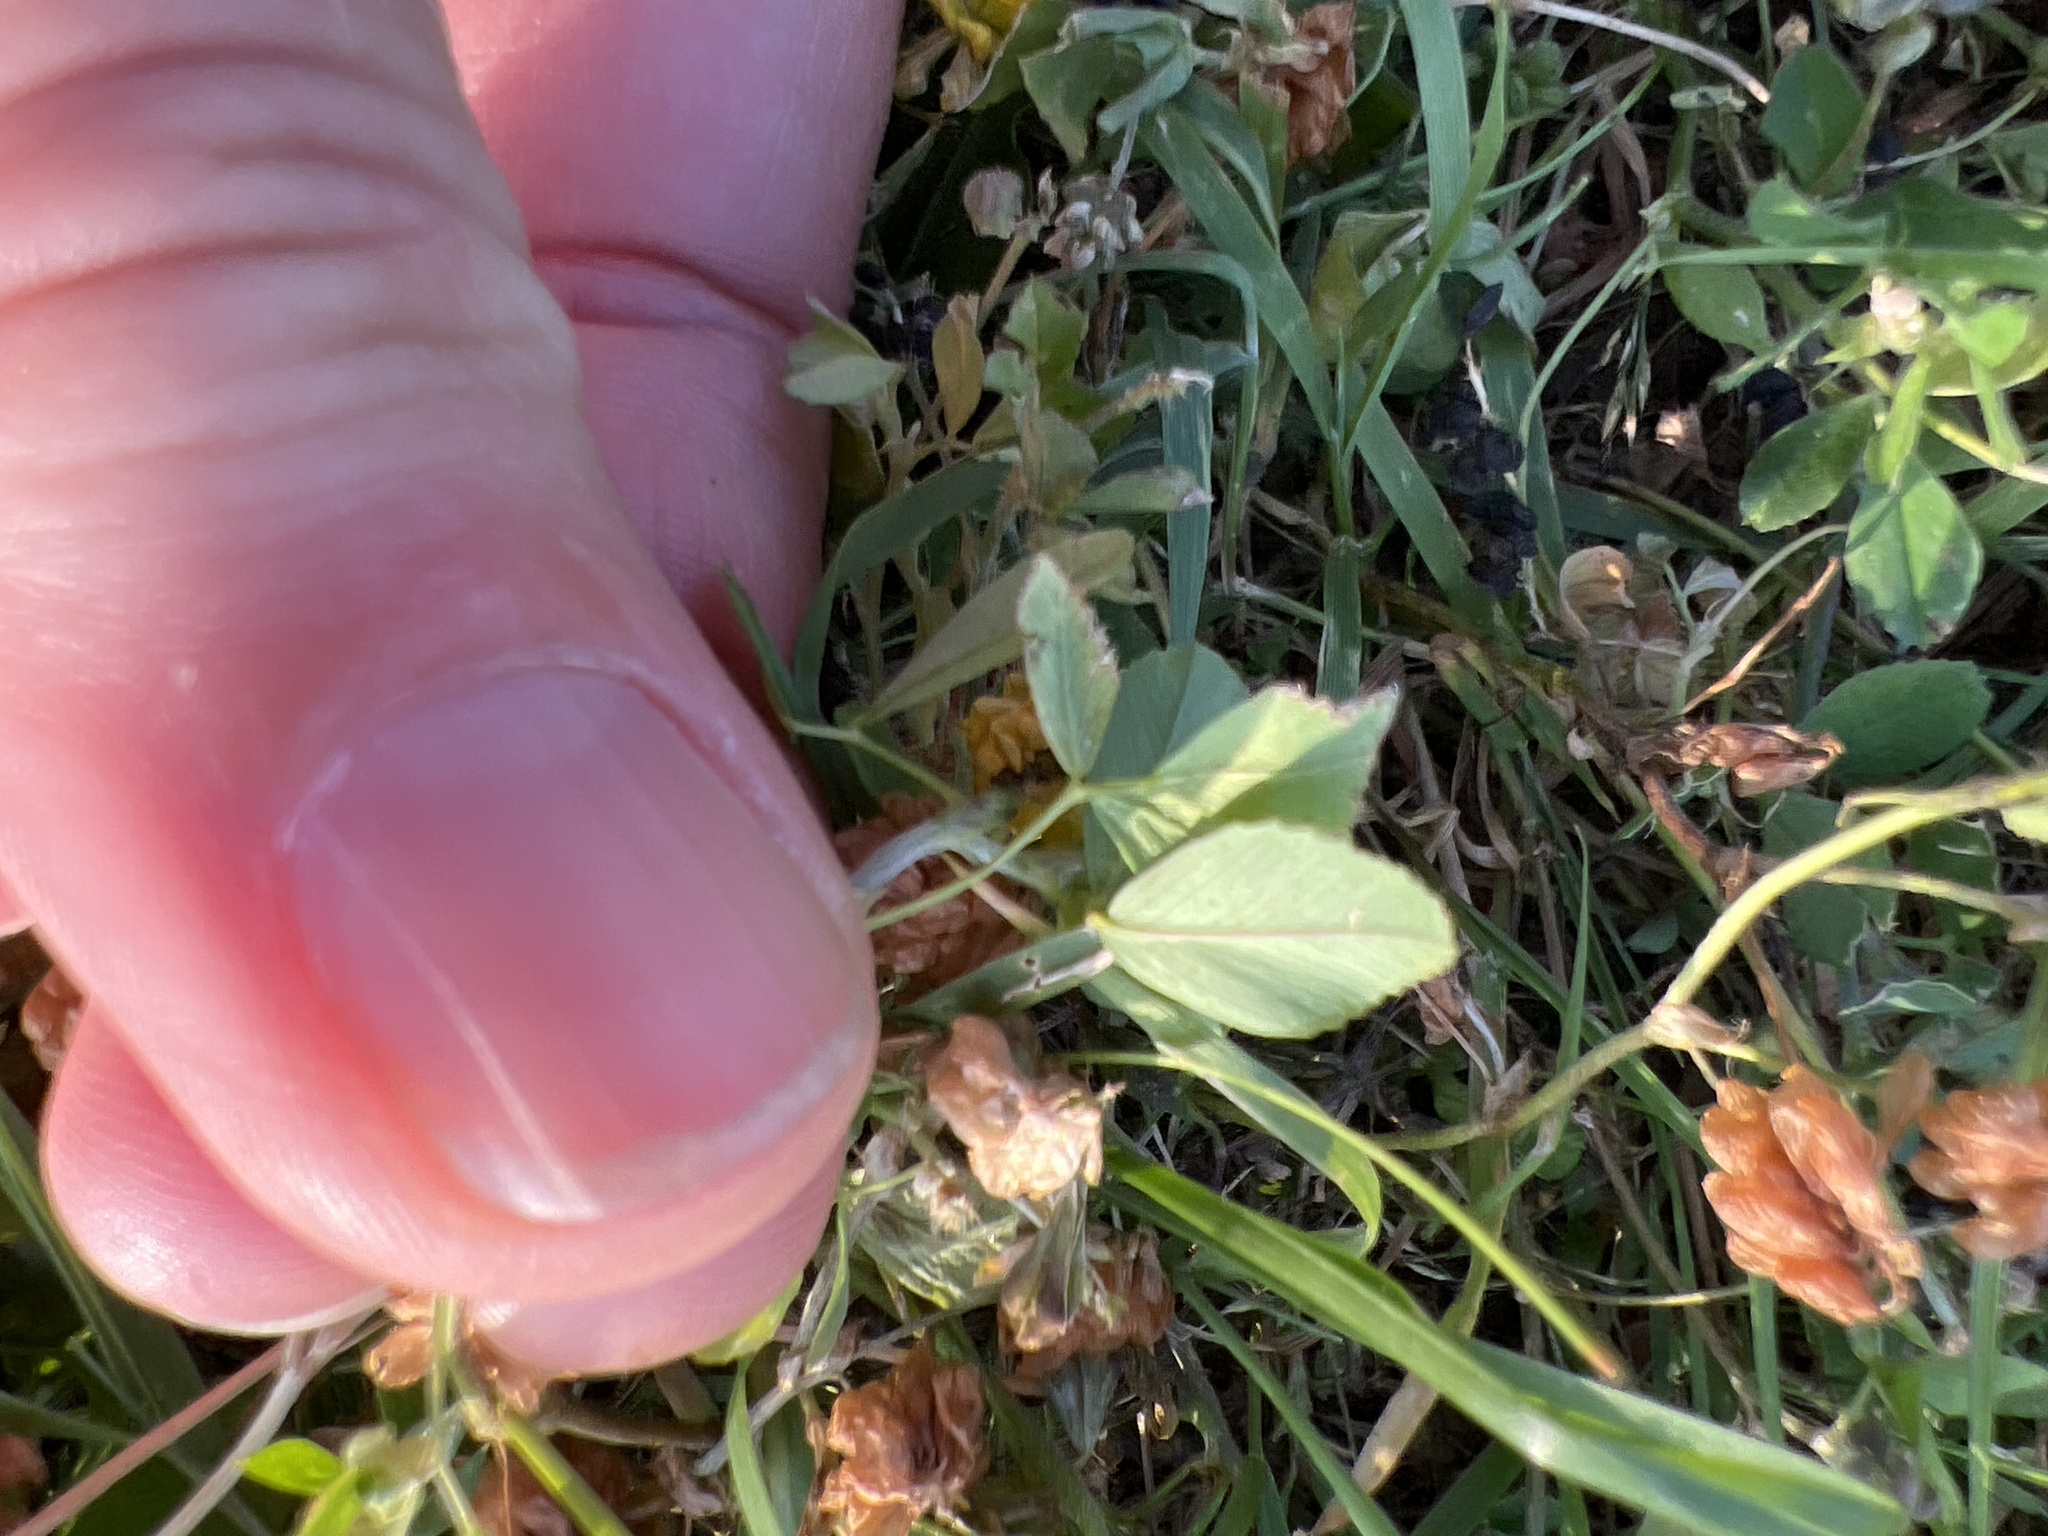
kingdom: Plantae
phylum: Tracheophyta
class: Magnoliopsida
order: Fabales
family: Fabaceae
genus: Trifolium
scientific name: Trifolium campestre
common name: Field clover
